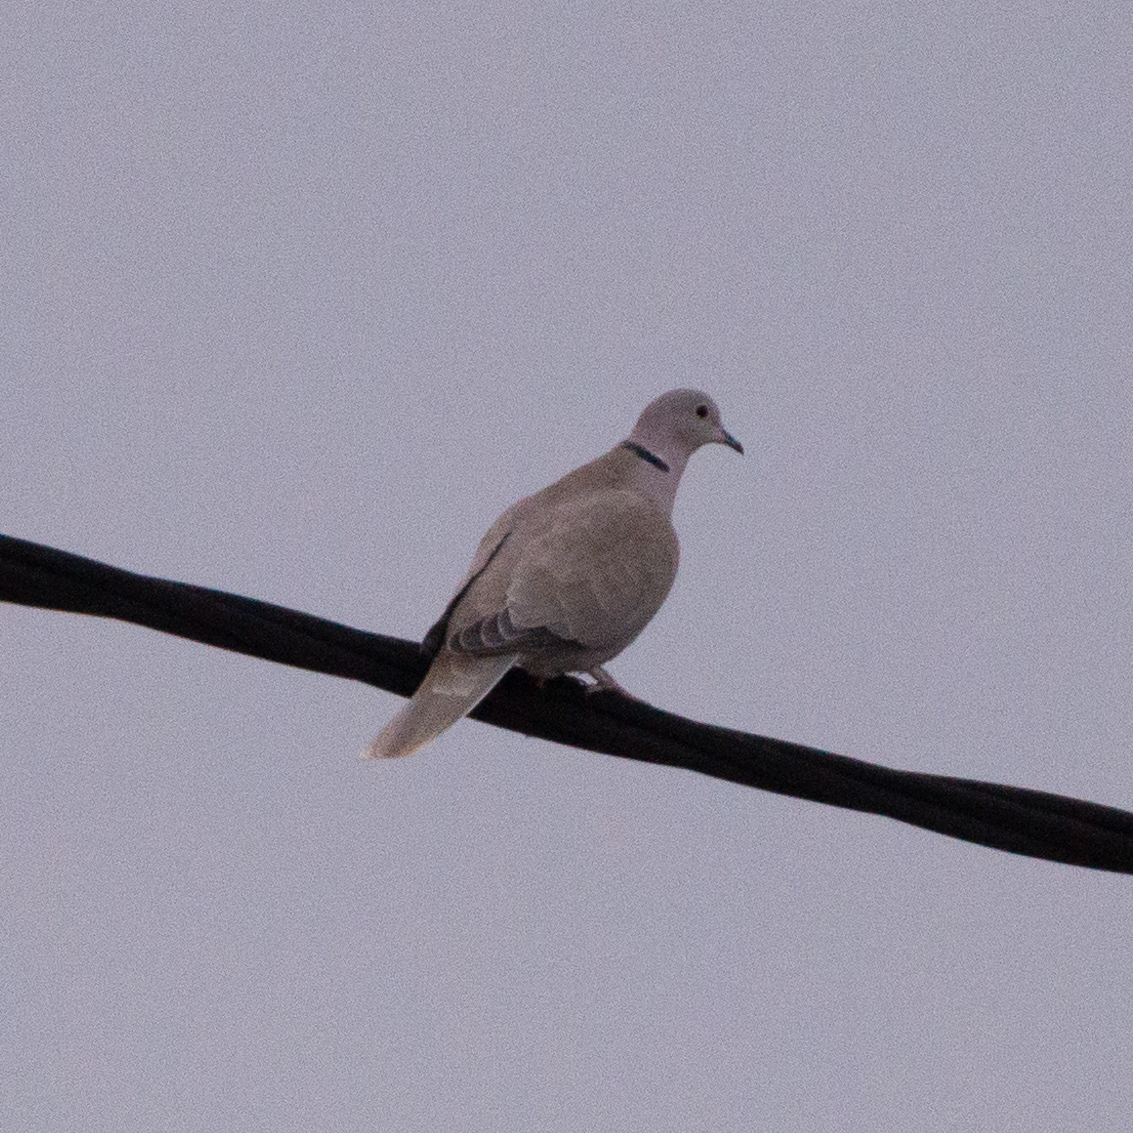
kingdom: Animalia
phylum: Chordata
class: Aves
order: Columbiformes
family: Columbidae
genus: Streptopelia
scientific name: Streptopelia decaocto
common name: Eurasian collared dove
